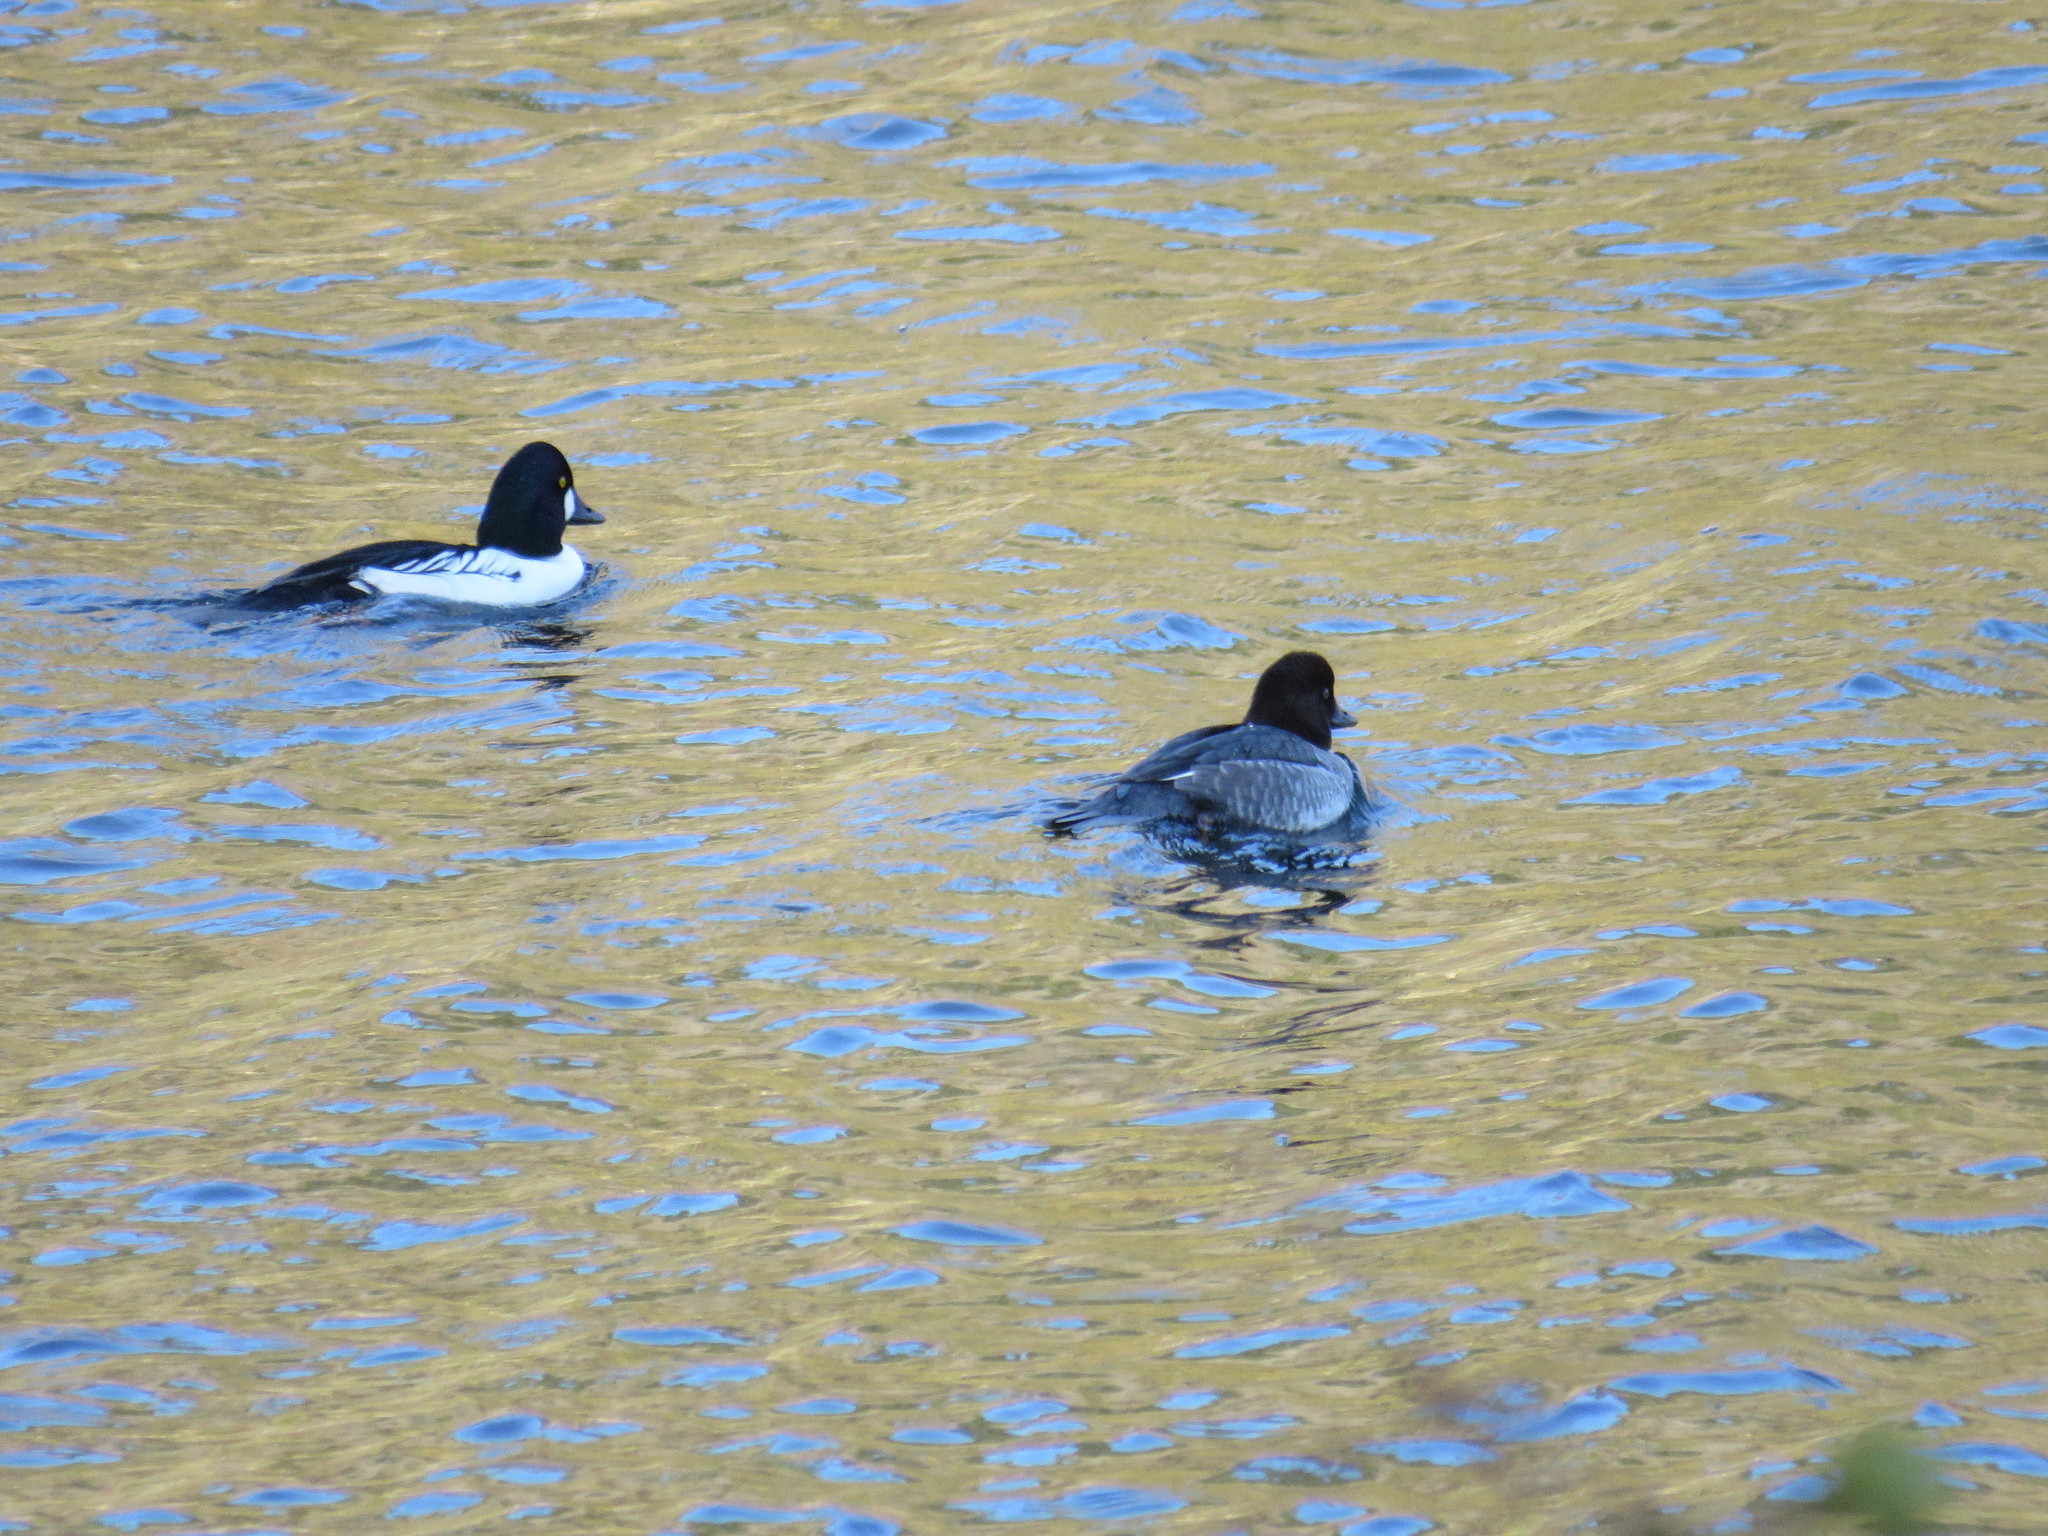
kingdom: Animalia
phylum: Chordata
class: Aves
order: Anseriformes
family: Anatidae
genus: Bucephala
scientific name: Bucephala clangula
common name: Common goldeneye
